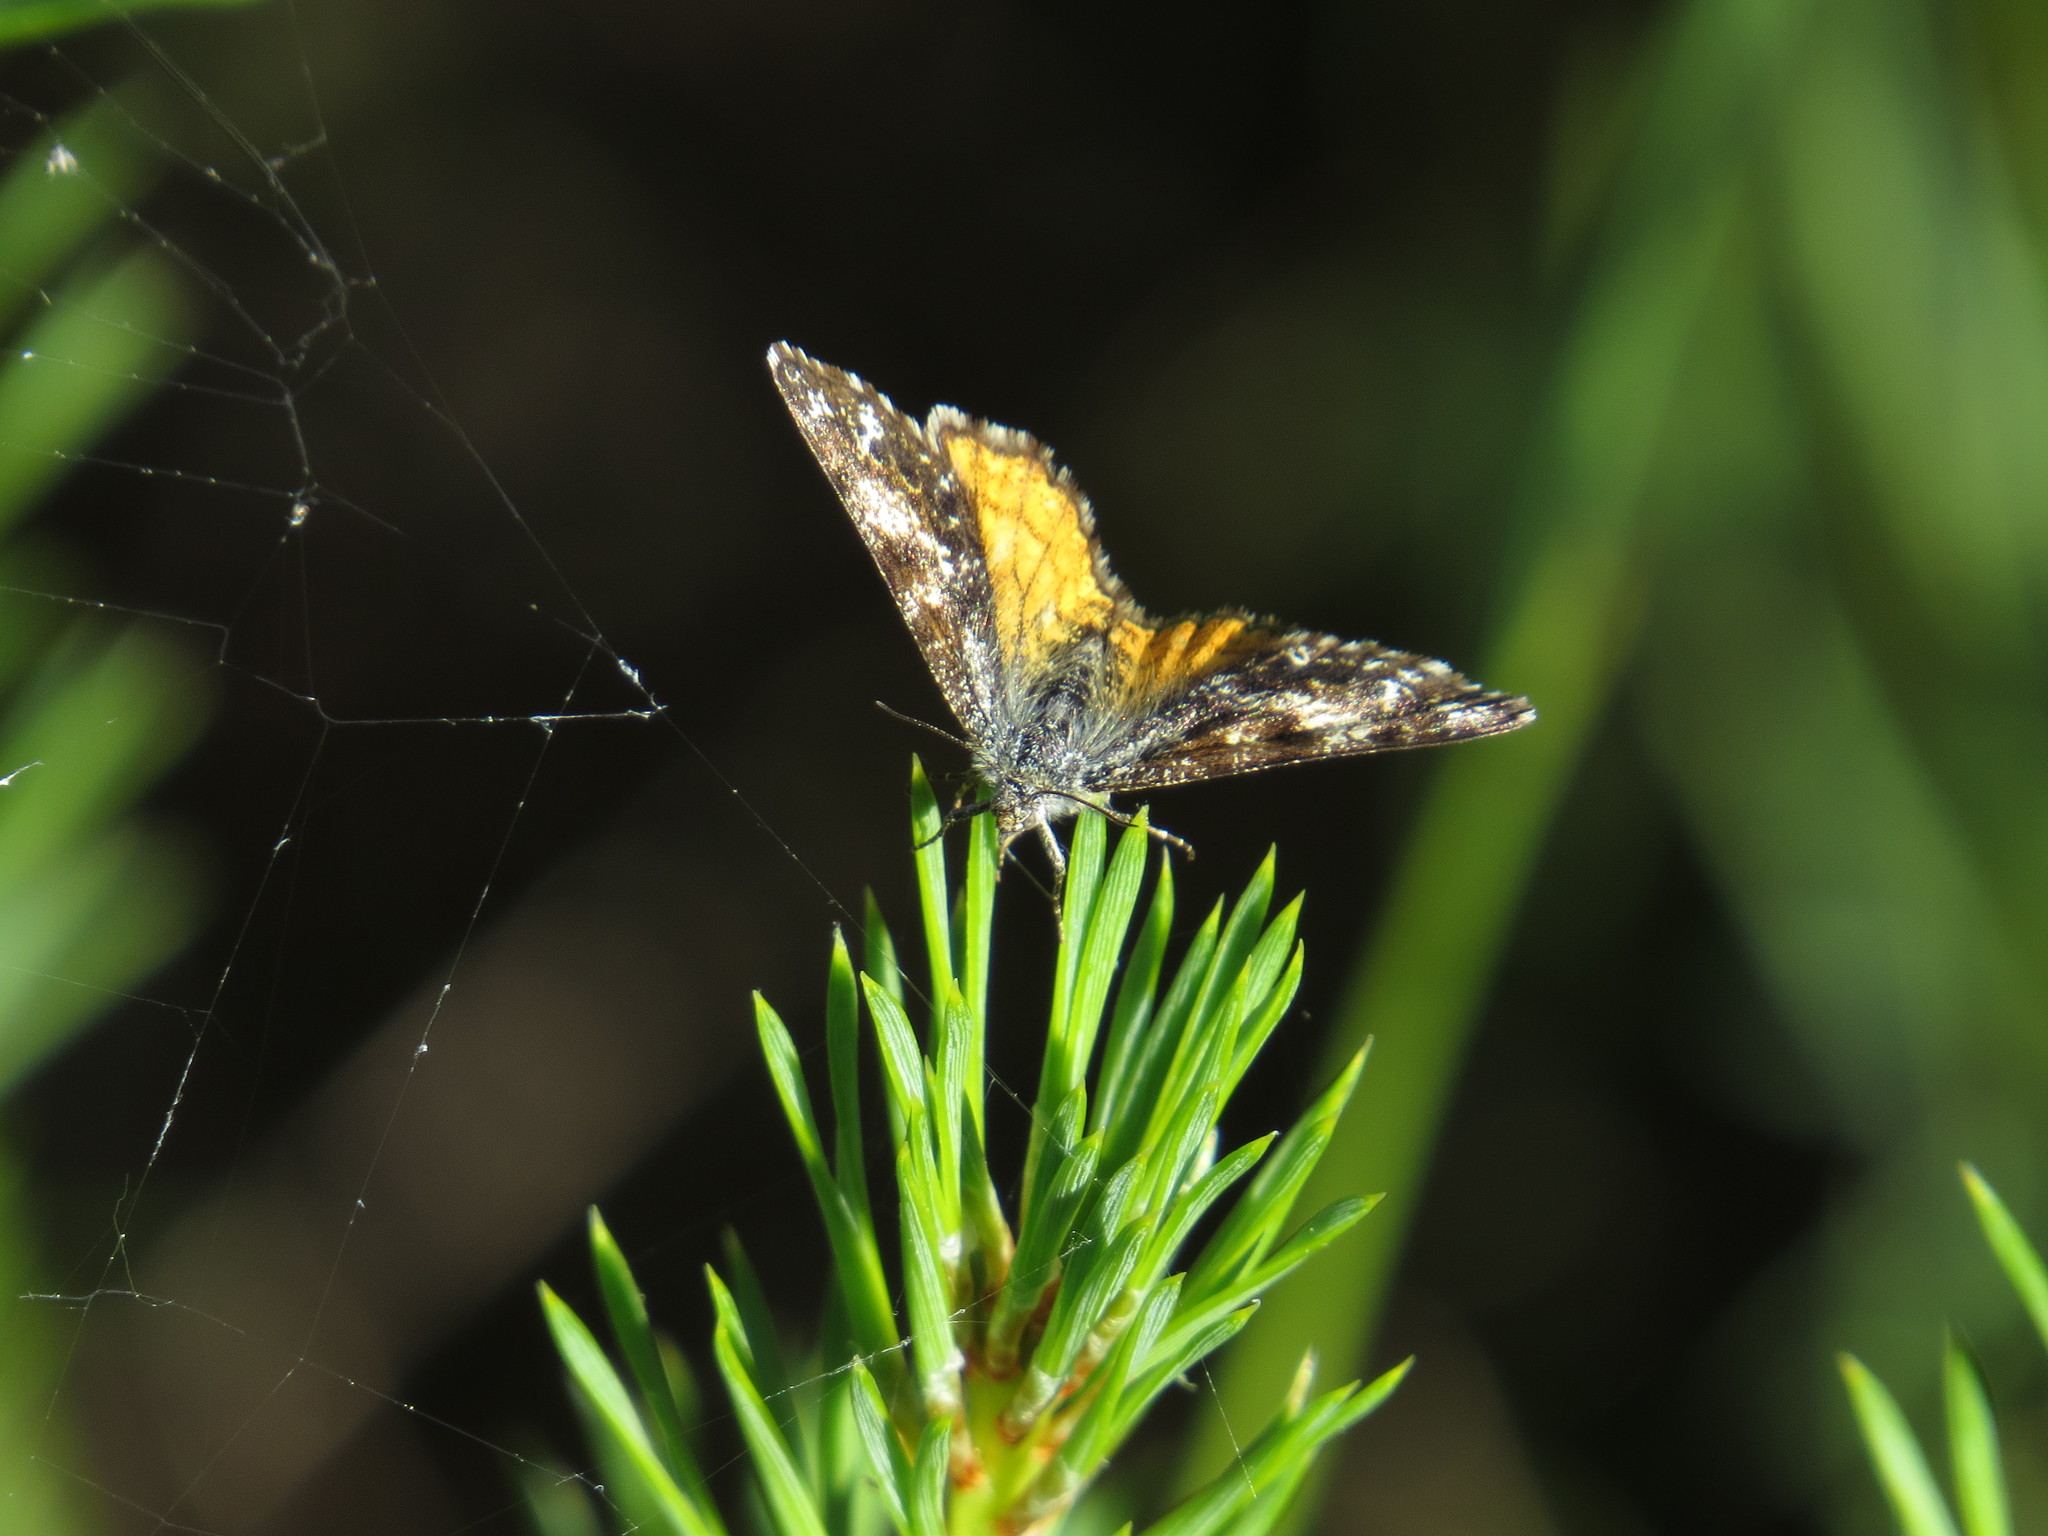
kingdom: Animalia
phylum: Arthropoda
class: Insecta
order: Lepidoptera
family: Geometridae
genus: Isturgia
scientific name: Isturgia famula
